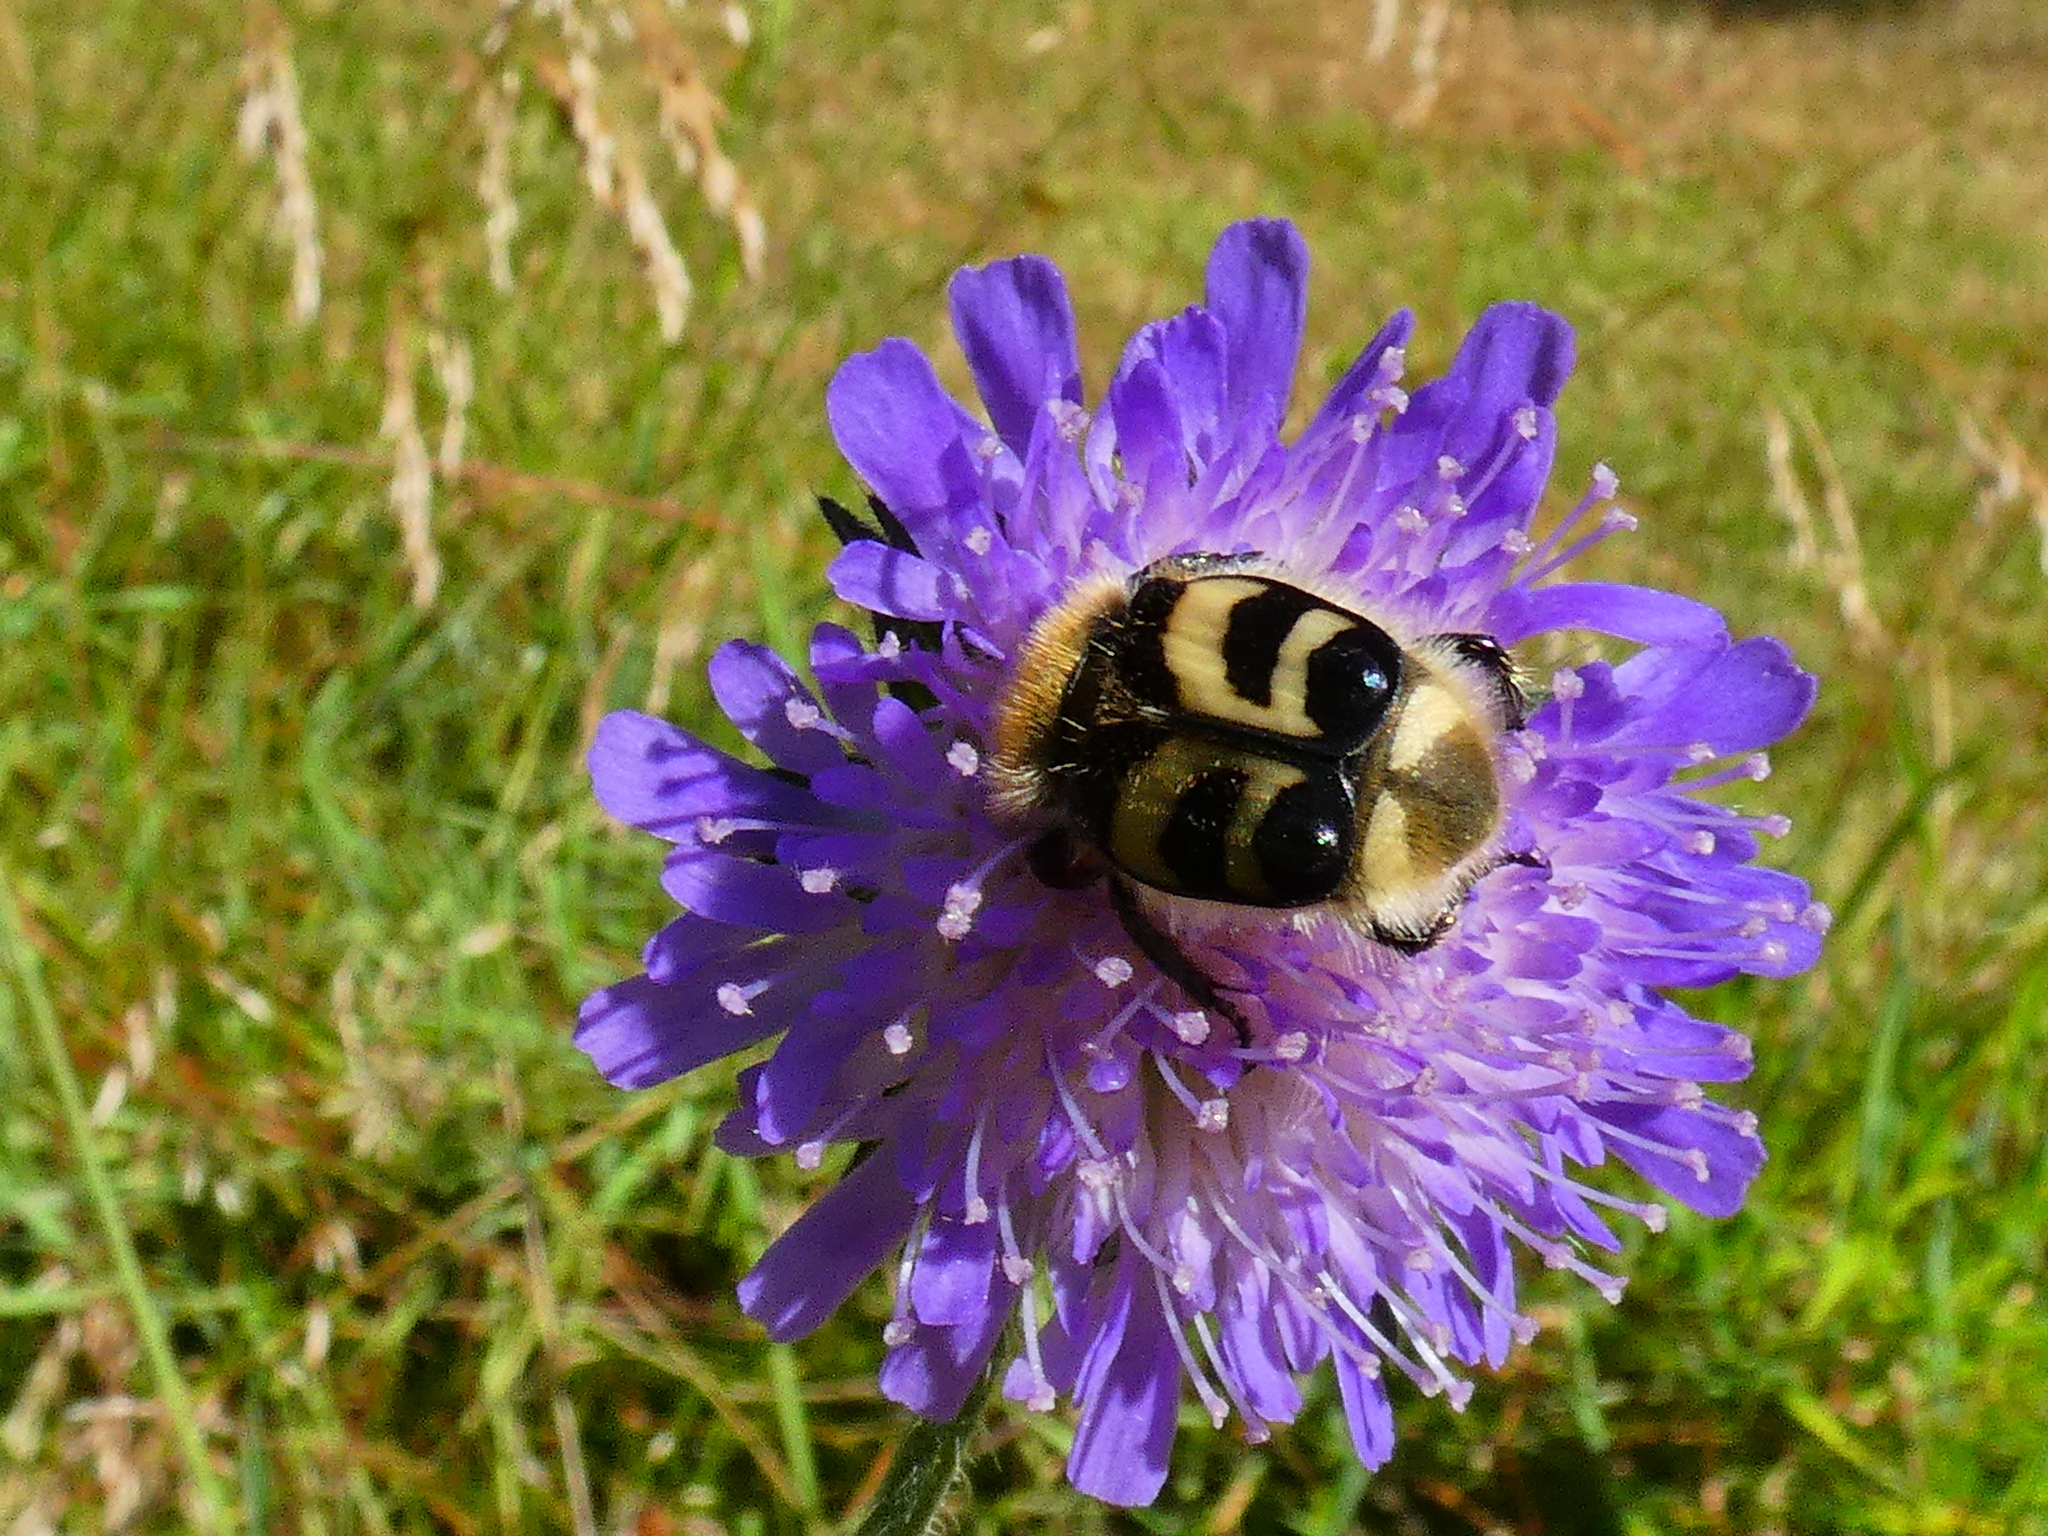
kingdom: Animalia
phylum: Arthropoda
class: Insecta
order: Coleoptera
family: Scarabaeidae
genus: Trichius
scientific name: Trichius fasciatus
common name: Bee beetle
